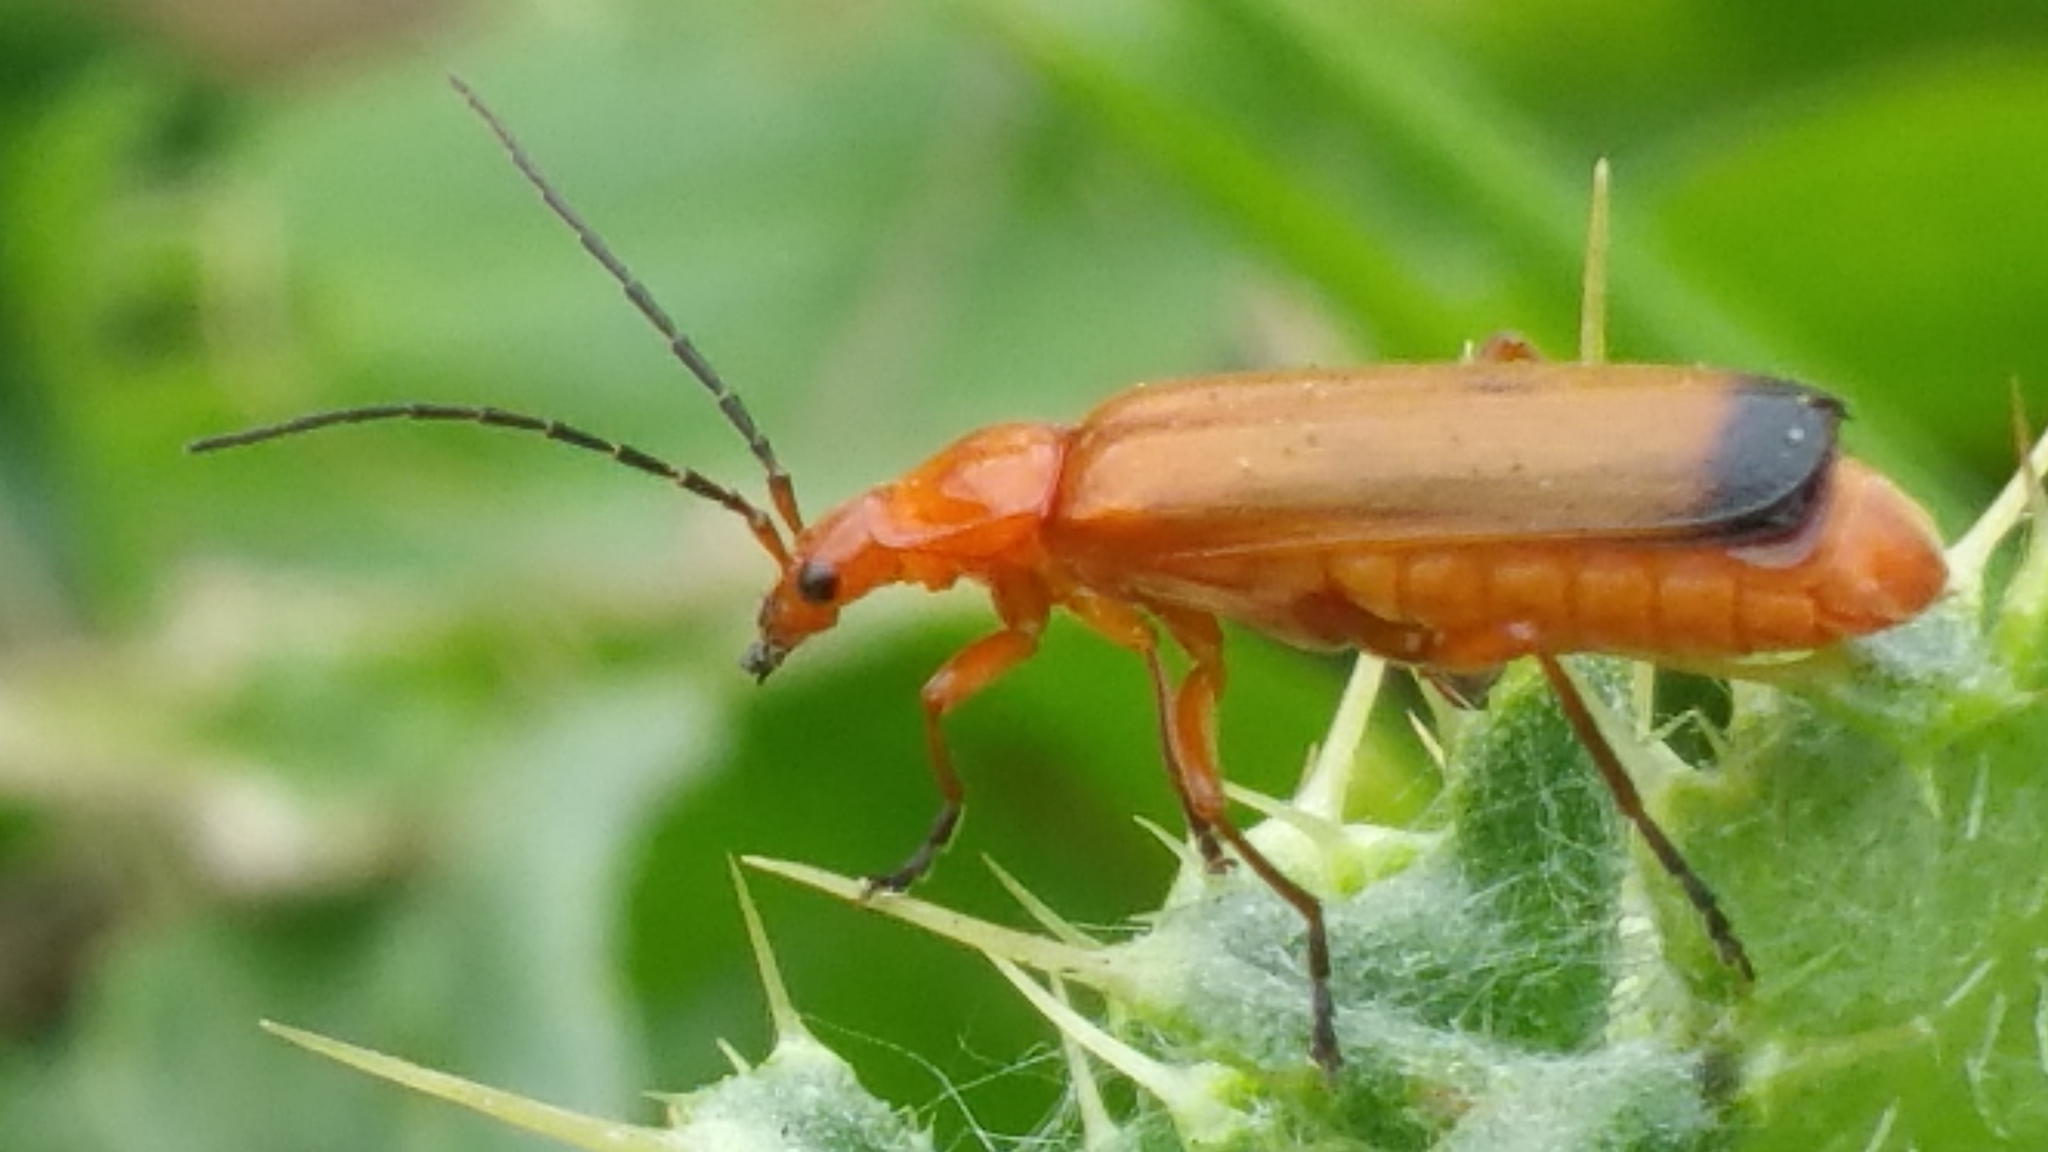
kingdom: Animalia
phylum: Arthropoda
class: Insecta
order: Coleoptera
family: Cantharidae
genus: Rhagonycha
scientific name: Rhagonycha fulva
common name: Common red soldier beetle
